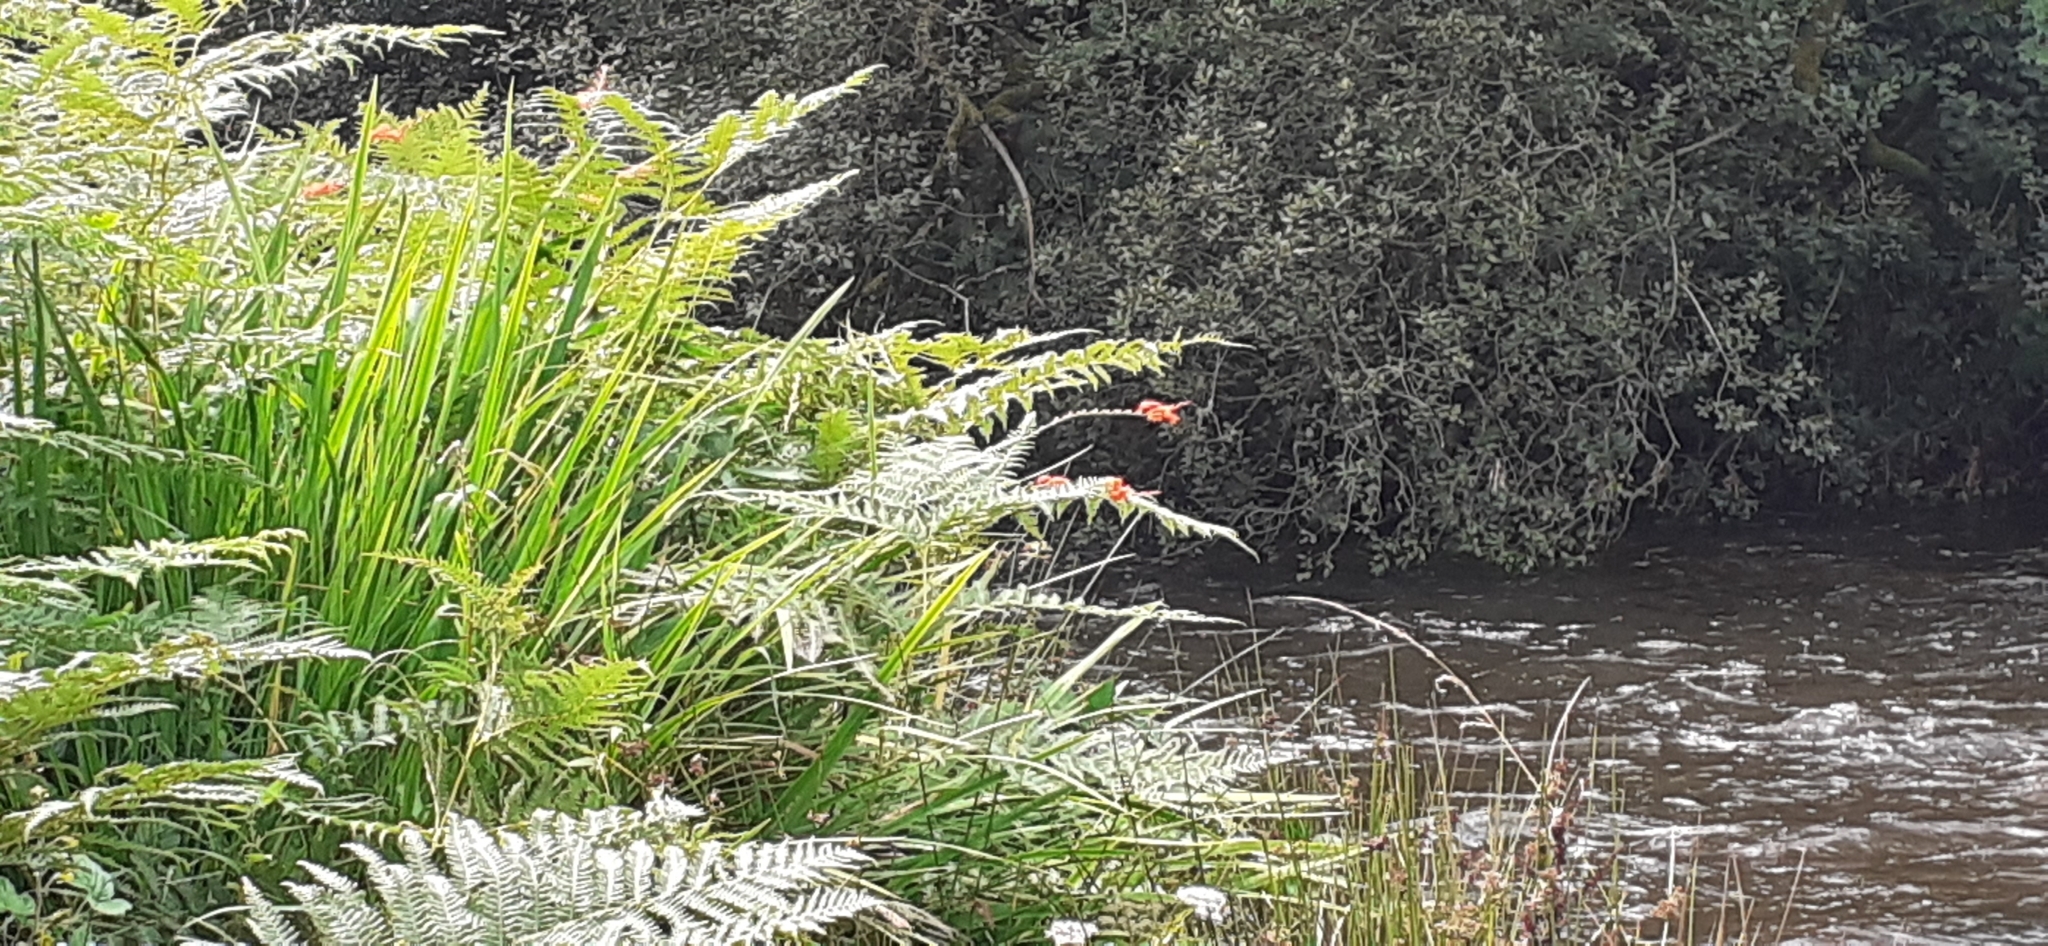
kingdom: Plantae
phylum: Tracheophyta
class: Liliopsida
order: Asparagales
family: Iridaceae
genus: Crocosmia
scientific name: Crocosmia crocosmiiflora
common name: Montbretia
